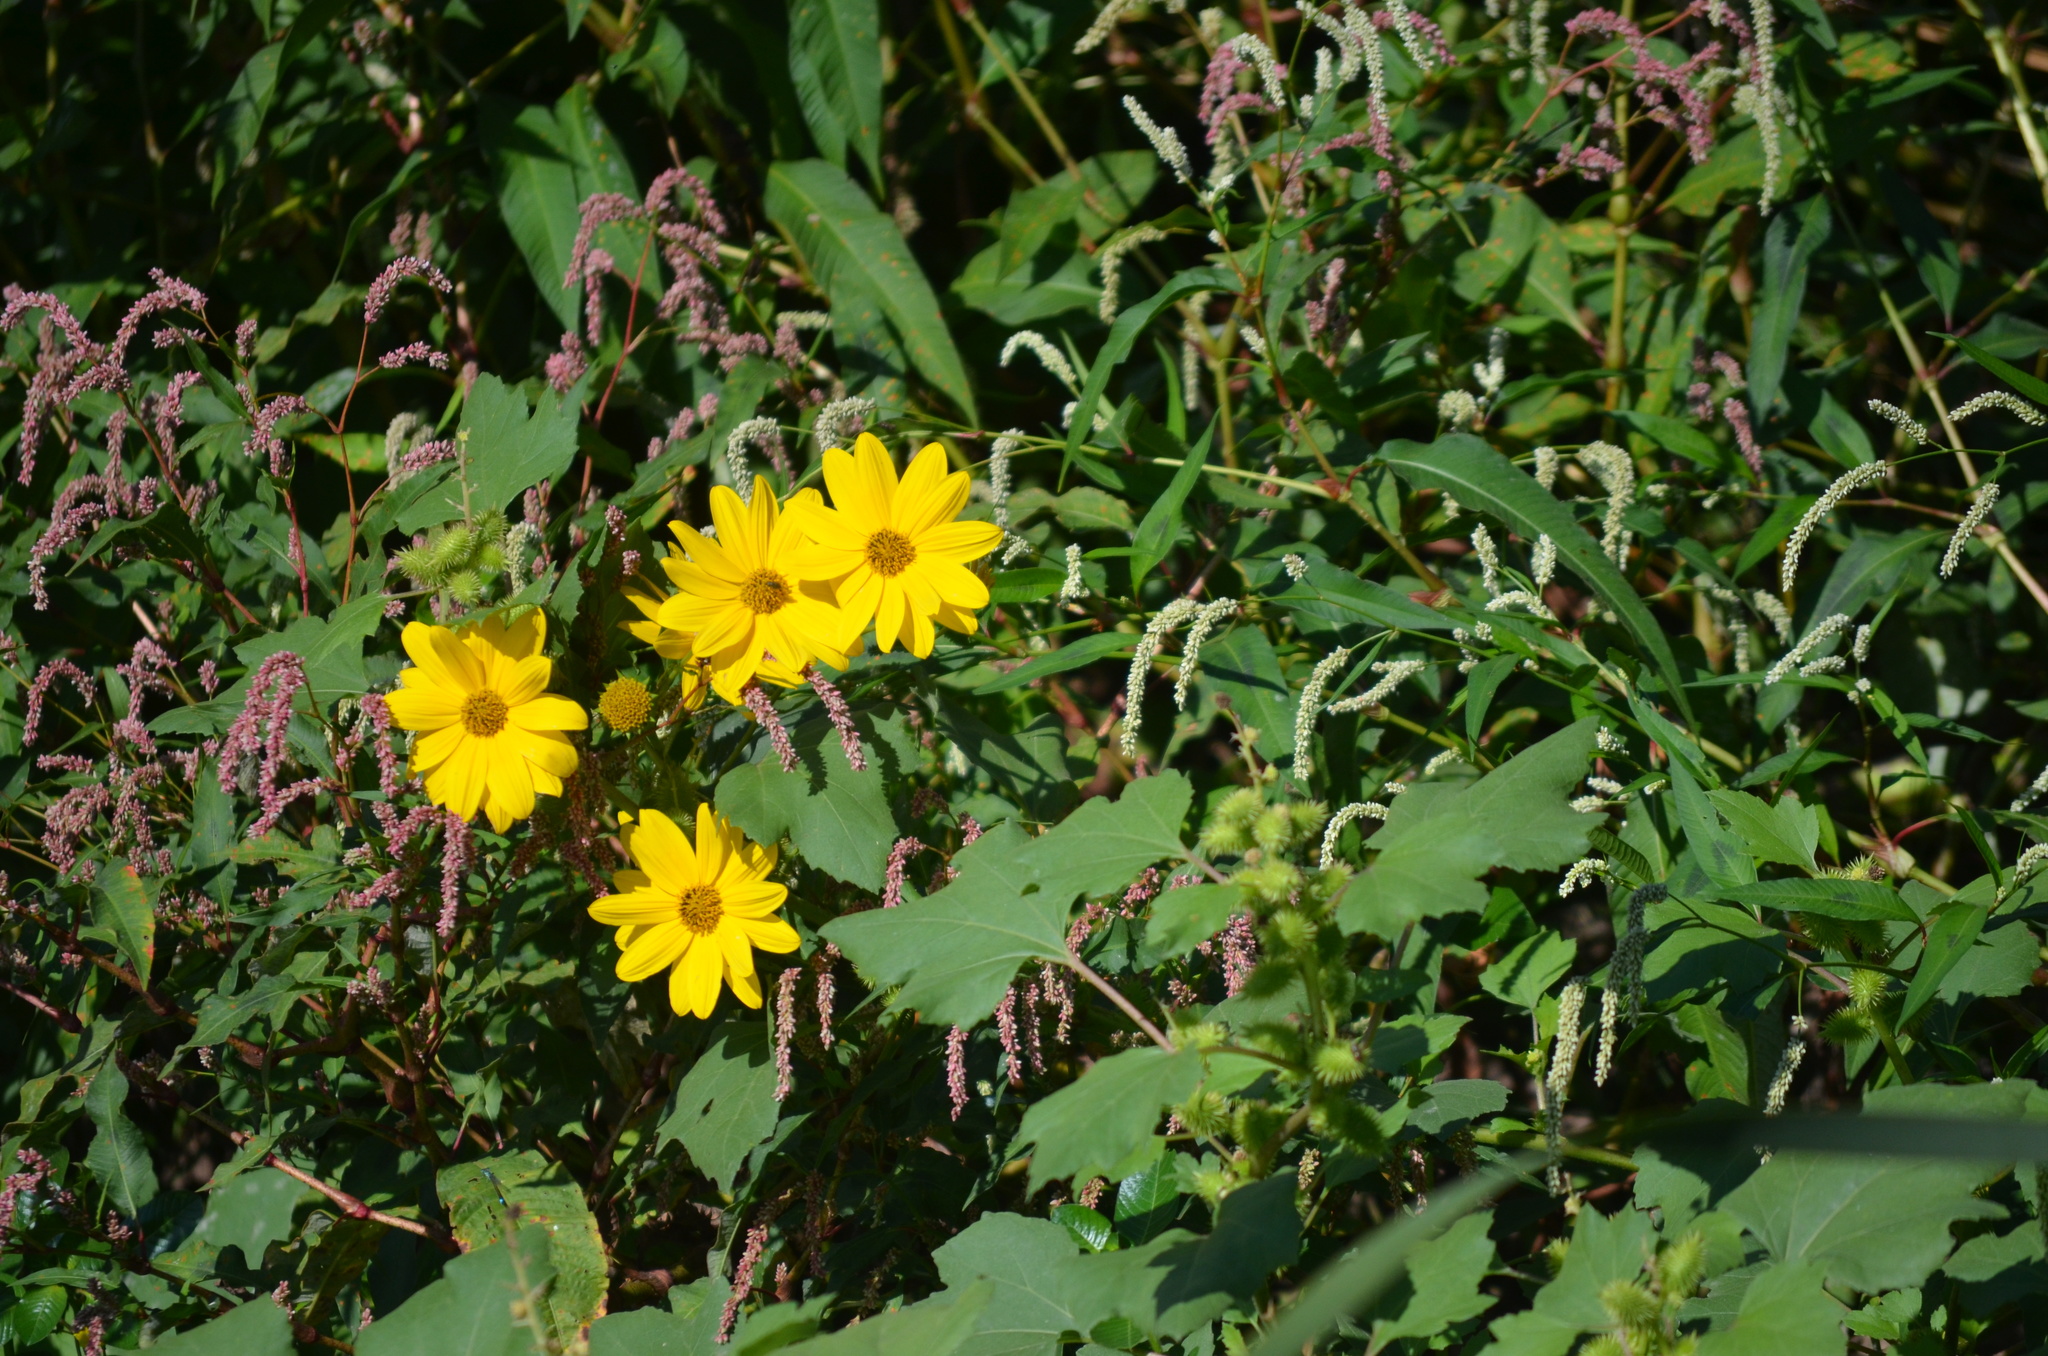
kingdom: Plantae
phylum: Tracheophyta
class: Magnoliopsida
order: Asterales
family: Asteraceae
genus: Helianthus
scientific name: Helianthus tuberosus
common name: Jerusalem artichoke
